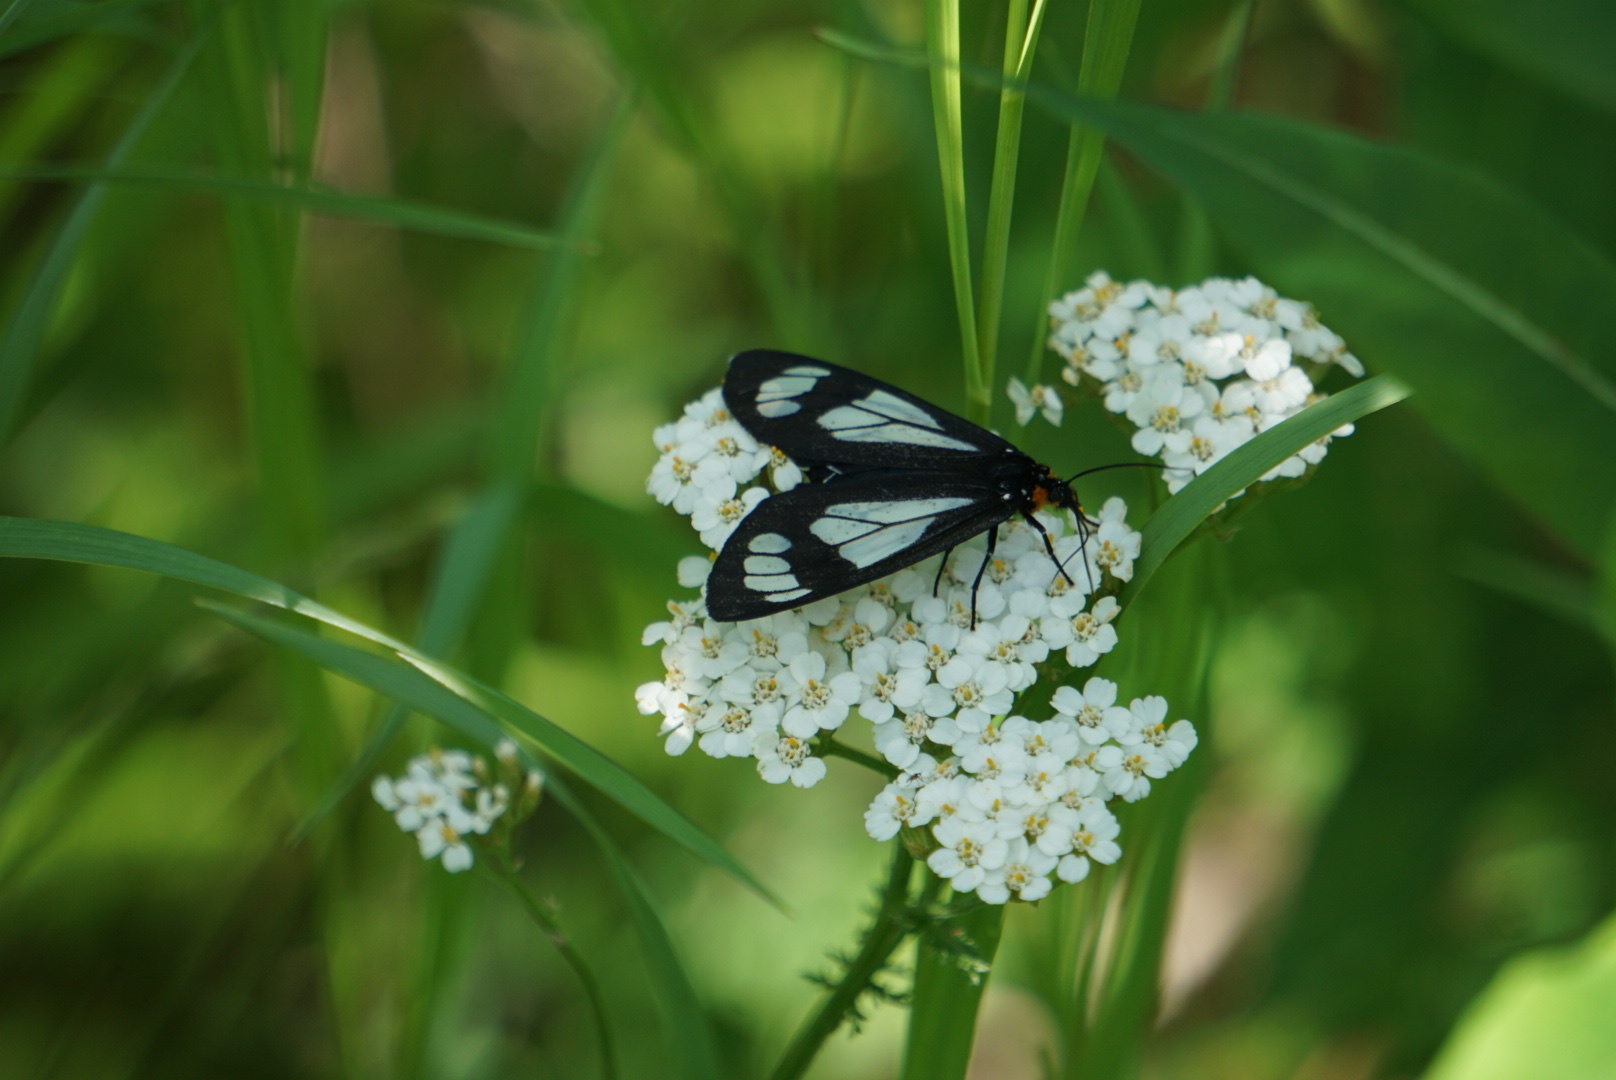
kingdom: Animalia
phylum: Arthropoda
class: Insecta
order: Lepidoptera
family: Erebidae
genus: Gnophaela
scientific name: Gnophaela vermiculata
